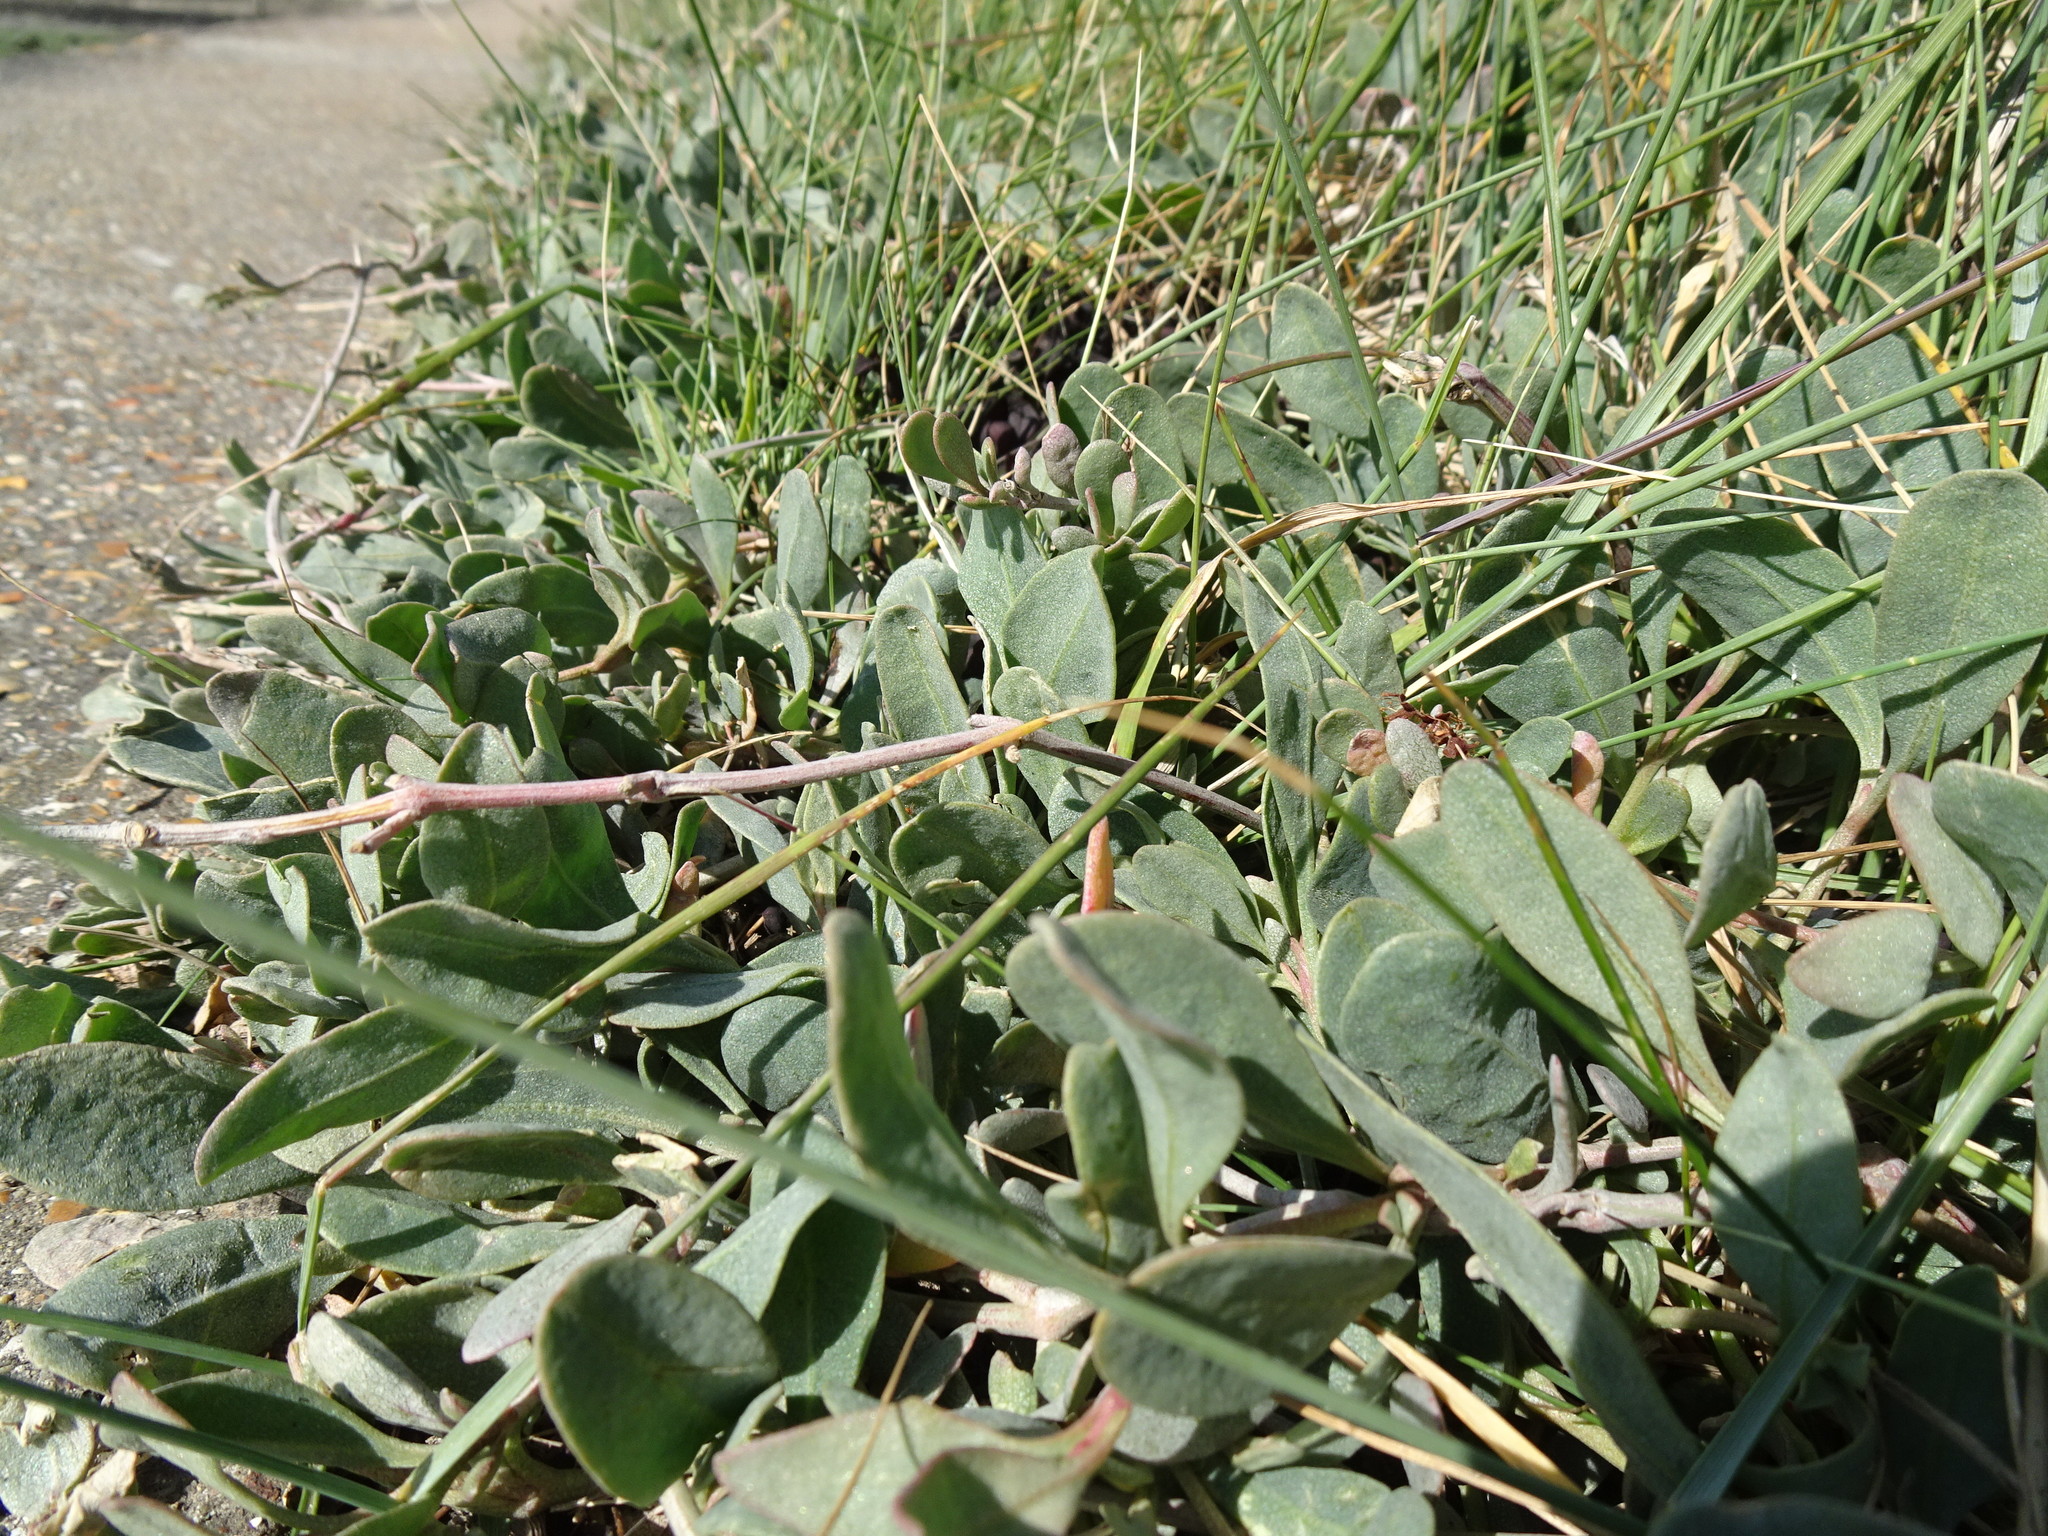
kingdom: Plantae
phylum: Tracheophyta
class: Magnoliopsida
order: Caryophyllales
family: Amaranthaceae
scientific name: Amaranthaceae
